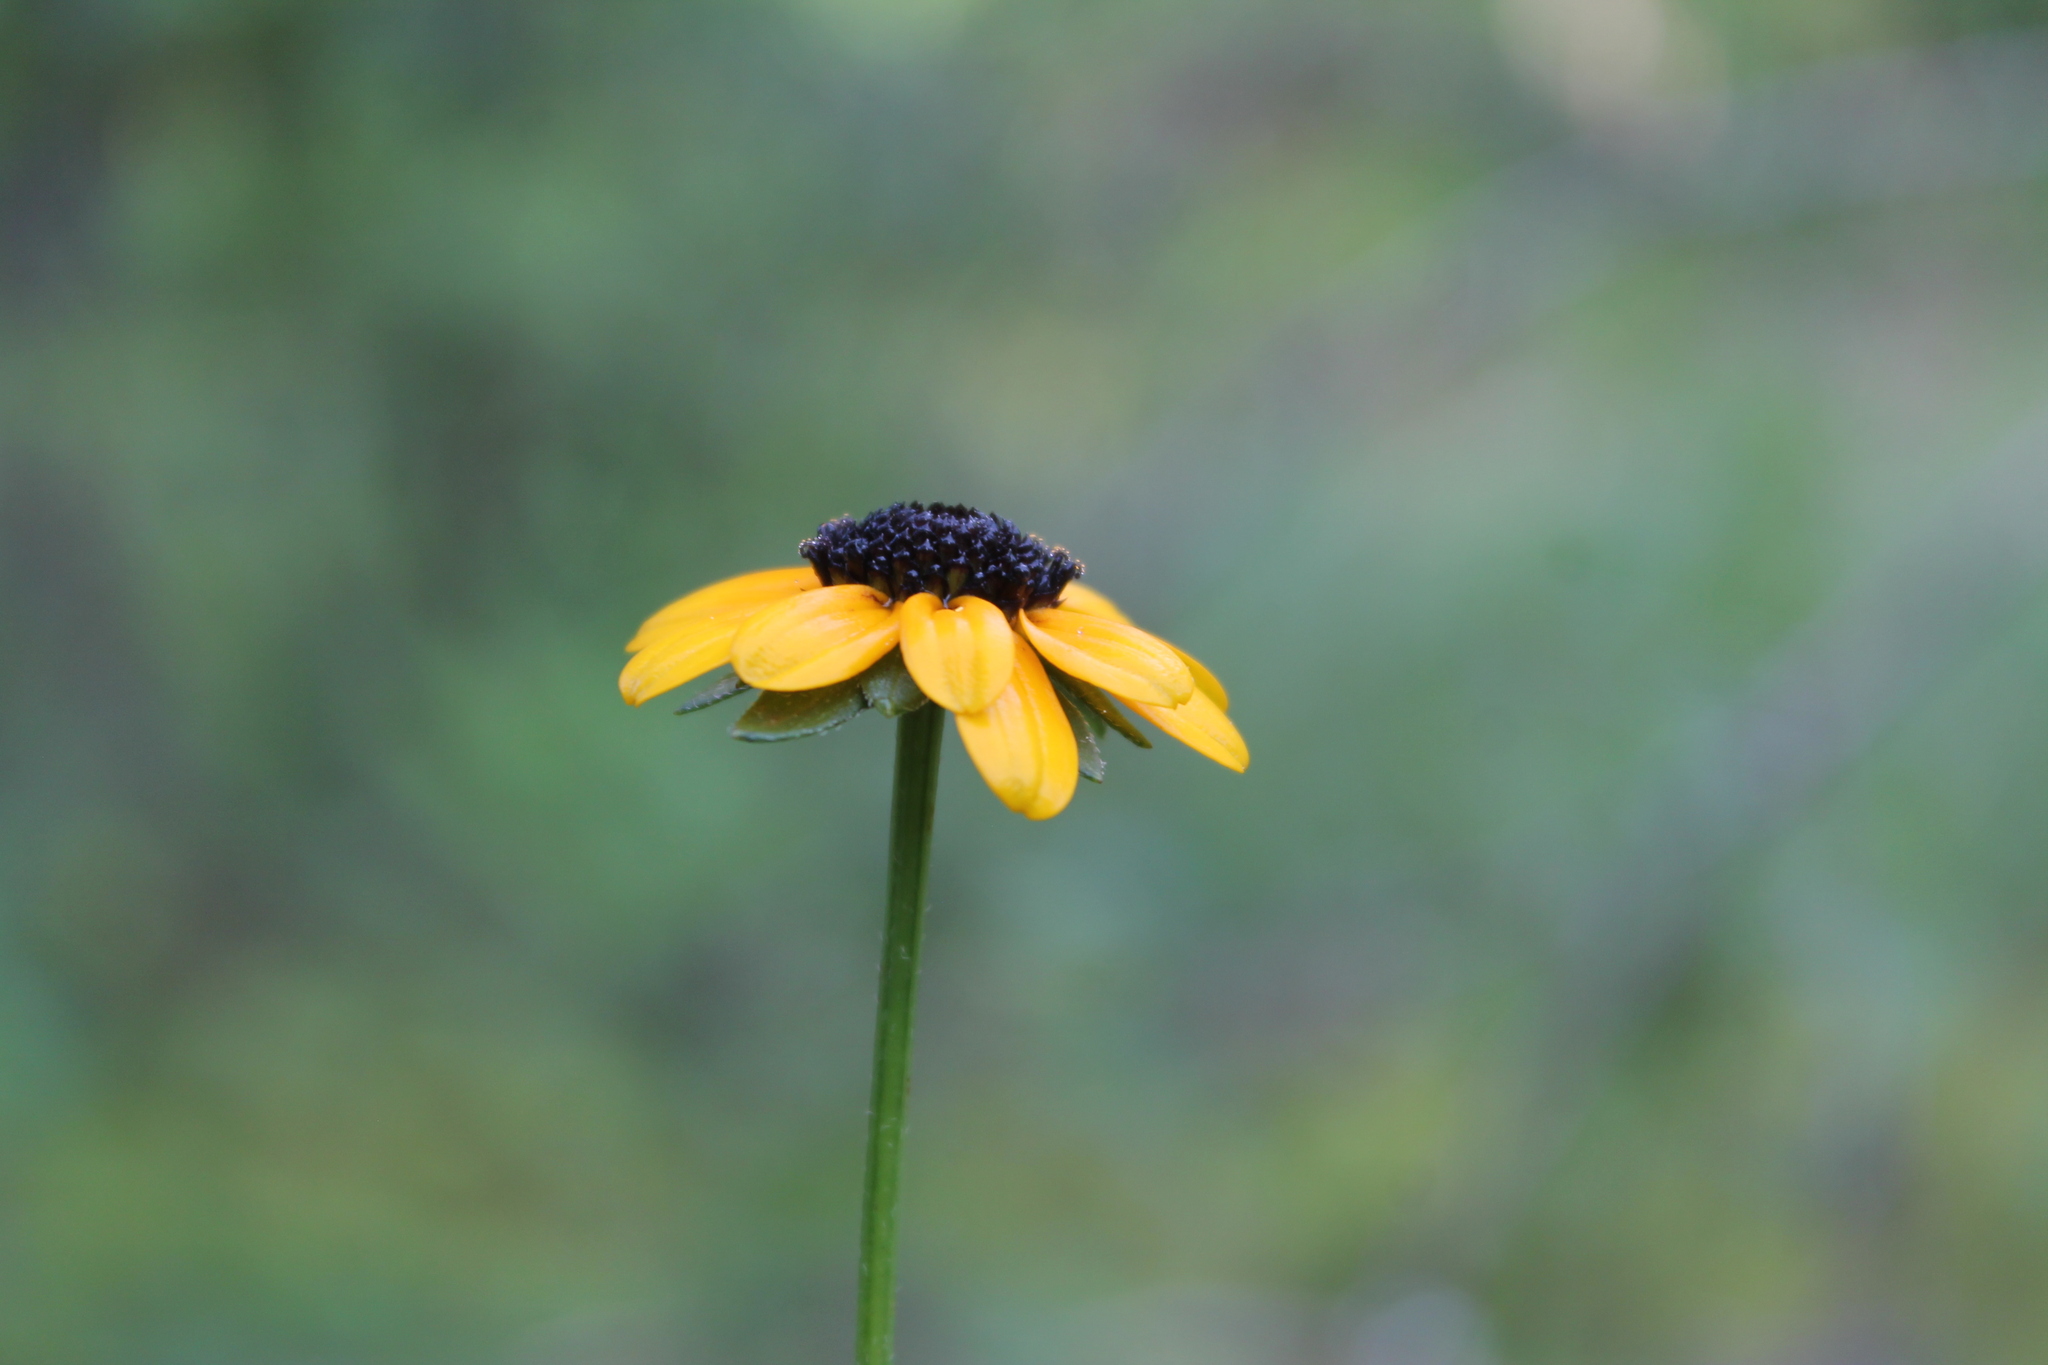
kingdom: Plantae
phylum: Tracheophyta
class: Magnoliopsida
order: Asterales
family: Asteraceae
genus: Rudbeckia
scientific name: Rudbeckia triloba
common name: Thin-leaved coneflower
